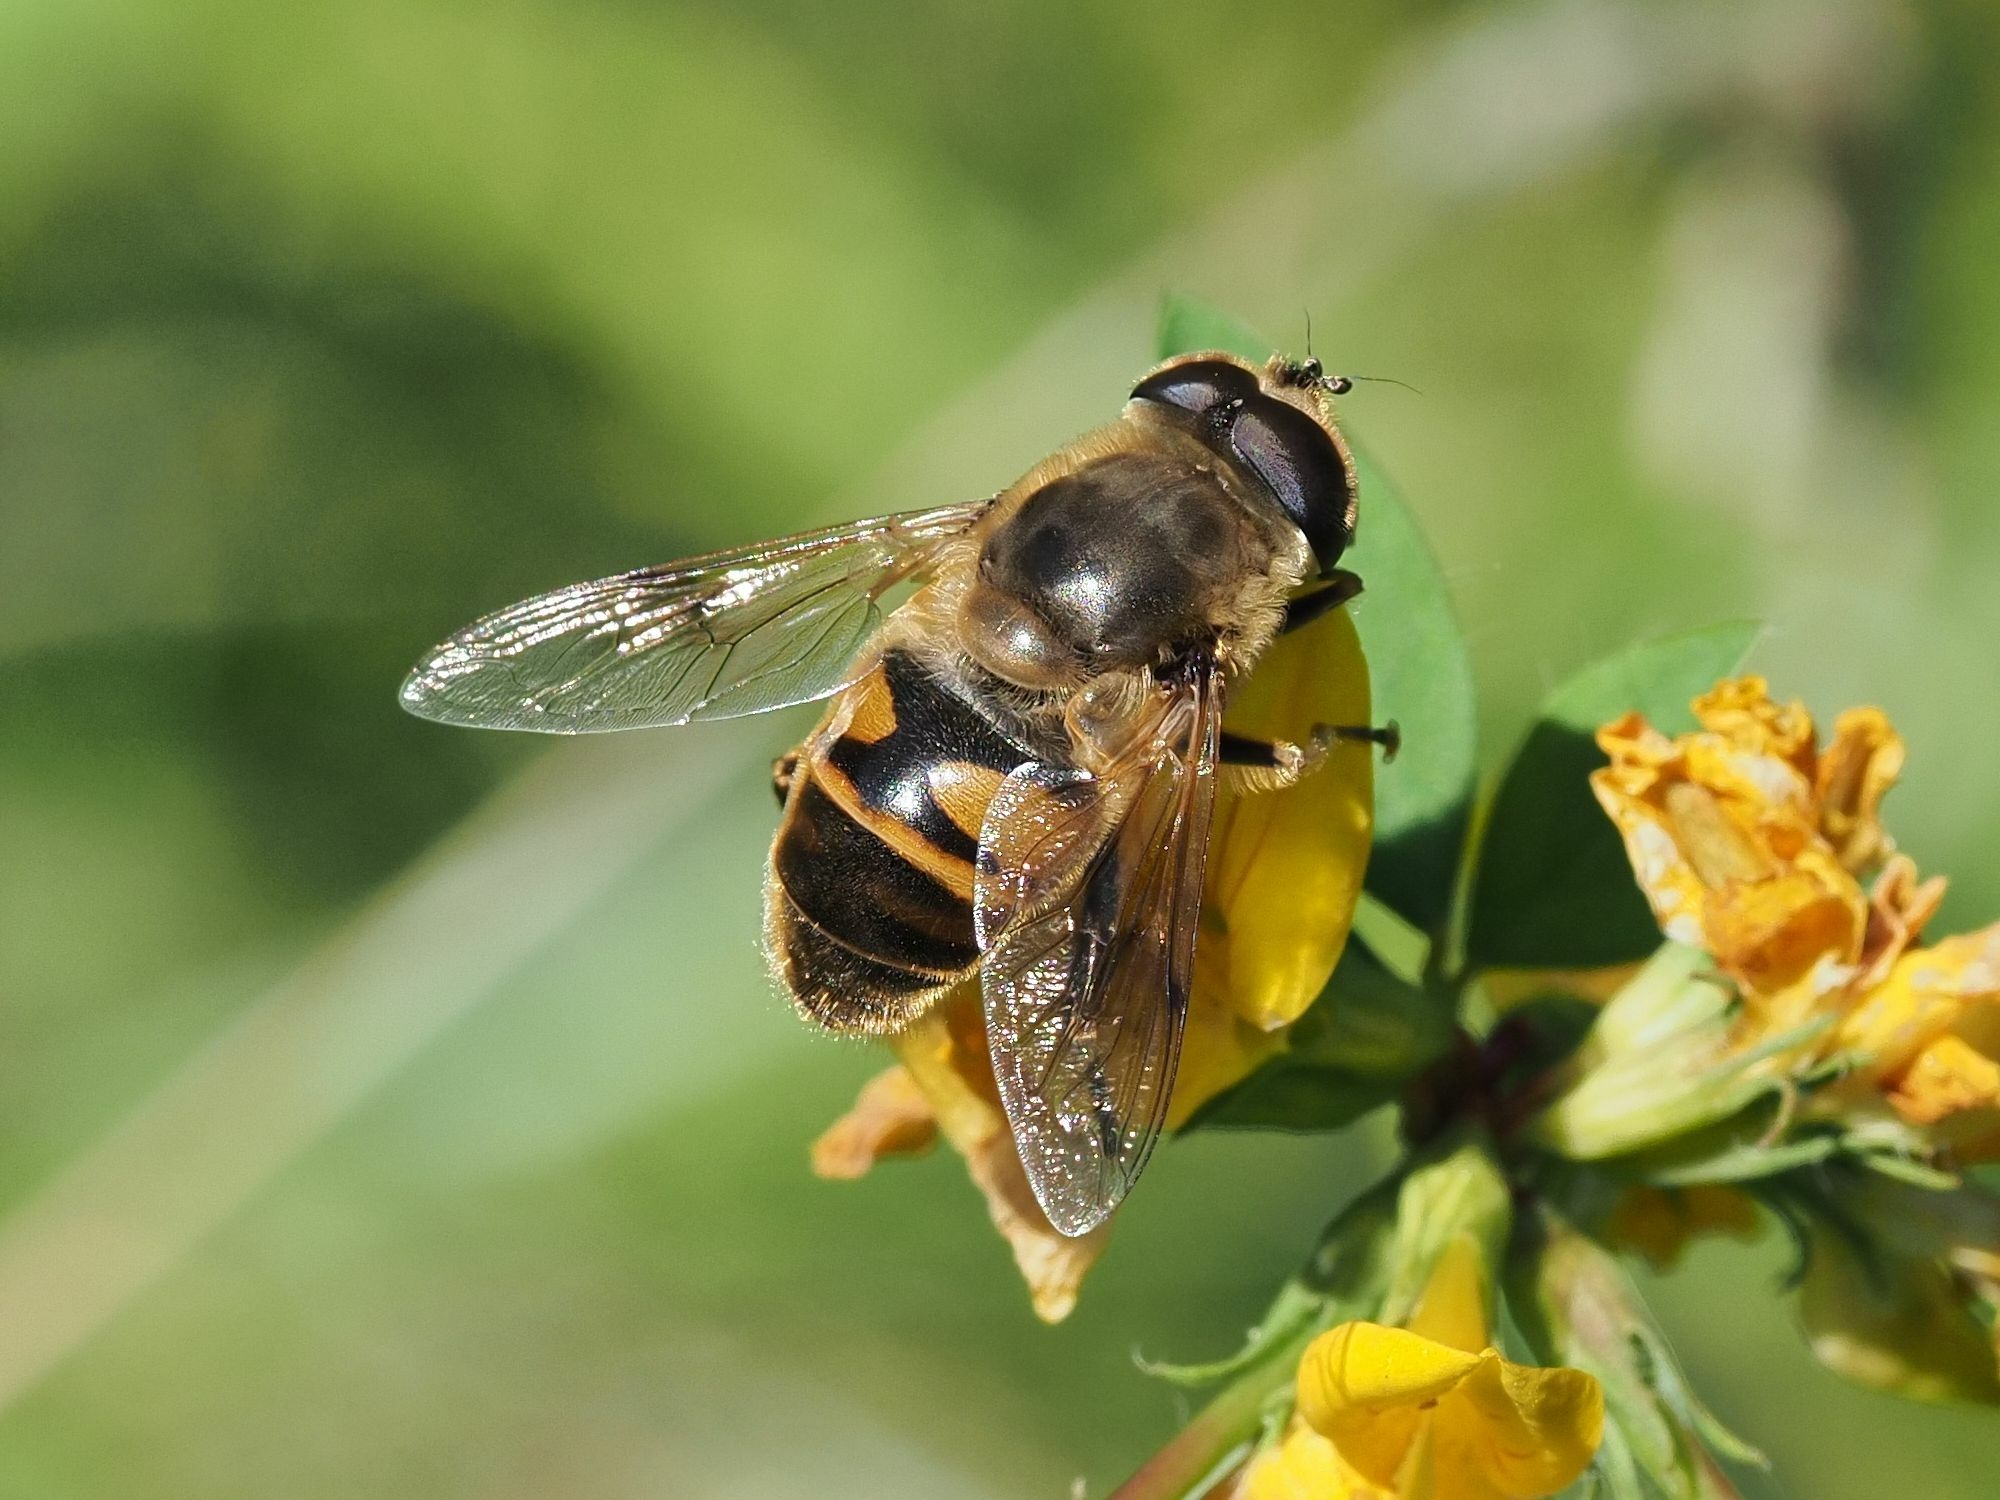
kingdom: Animalia
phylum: Arthropoda
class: Insecta
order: Diptera
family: Syrphidae
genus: Eristalis
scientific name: Eristalis tenax
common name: Drone fly
